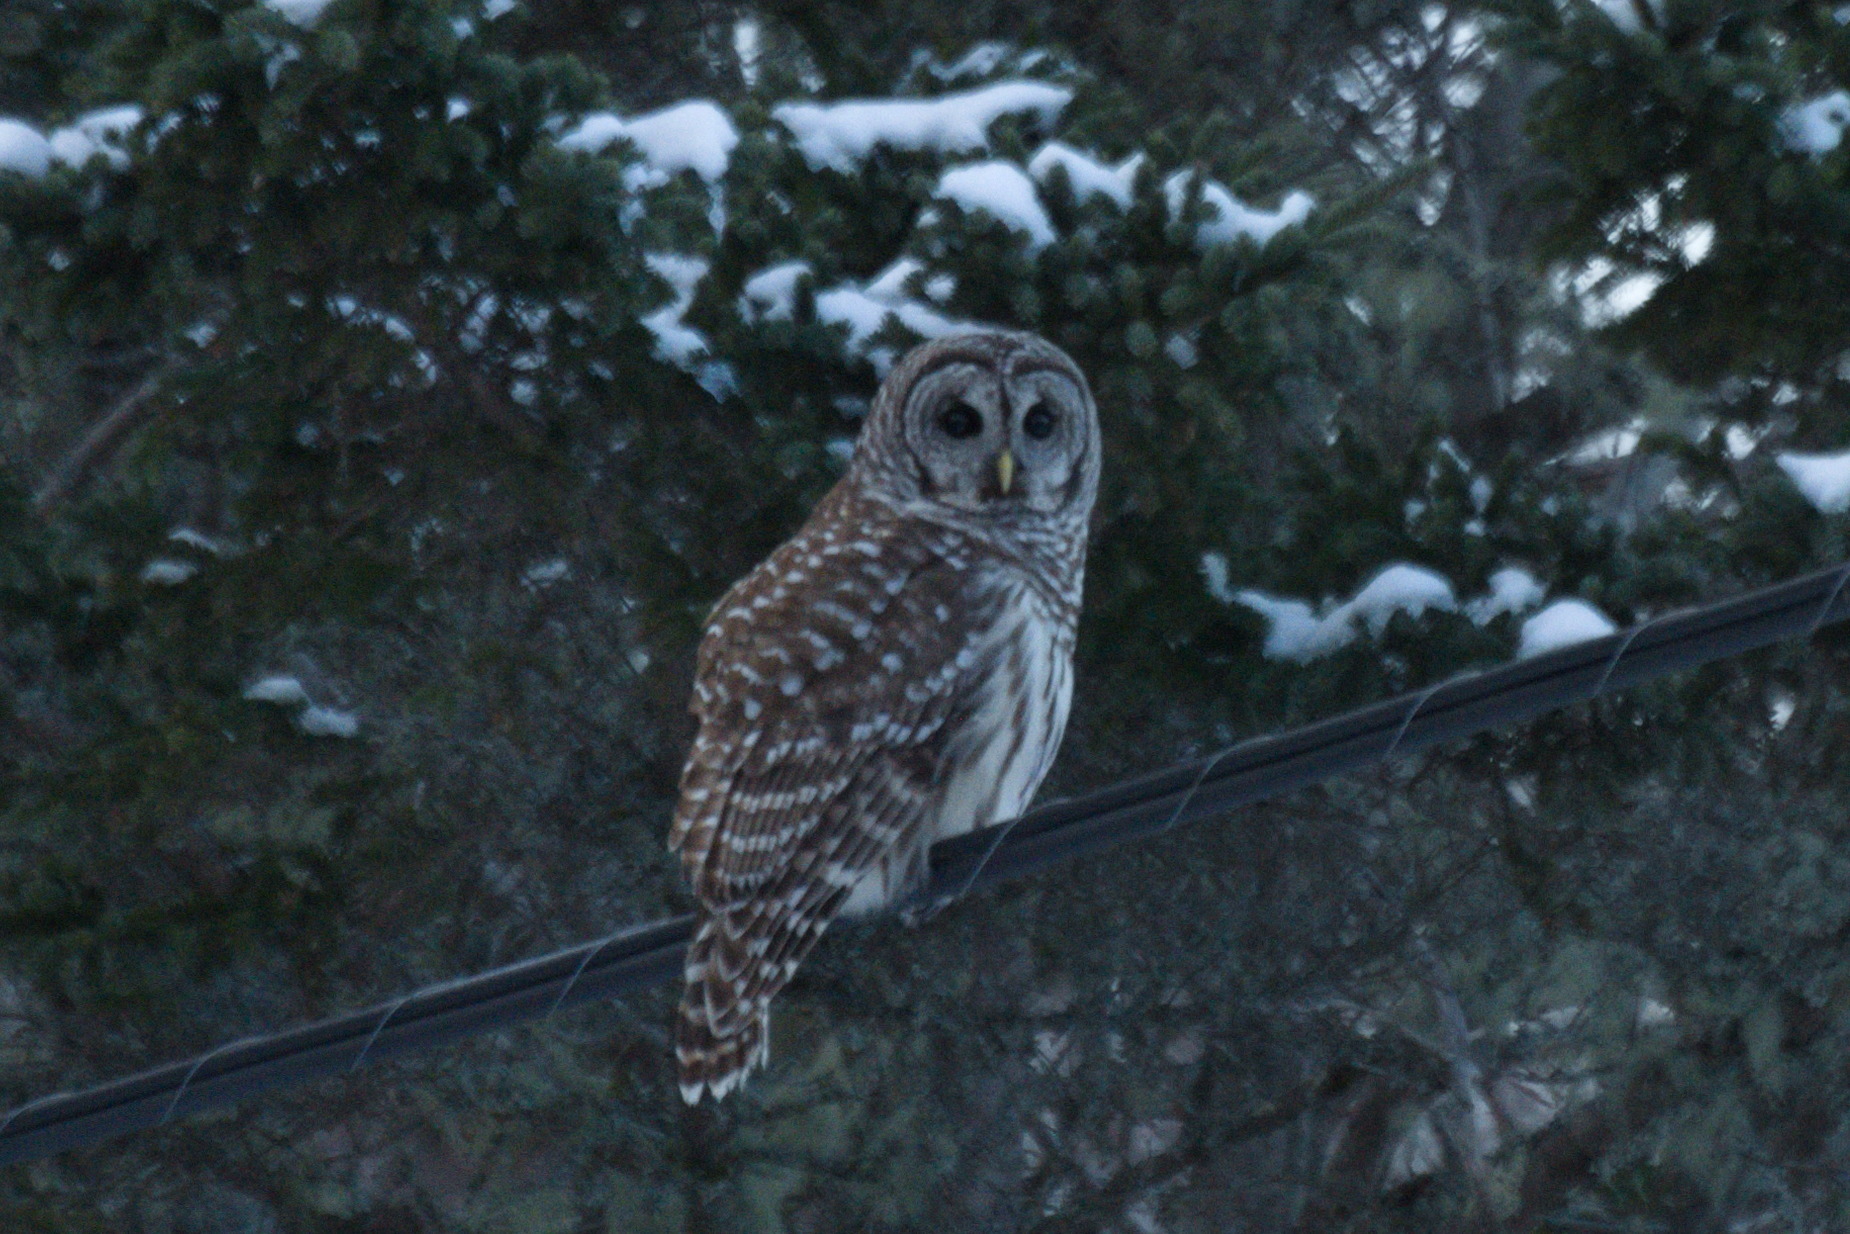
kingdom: Animalia
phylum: Chordata
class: Aves
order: Strigiformes
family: Strigidae
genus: Strix
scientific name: Strix varia
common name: Barred owl
